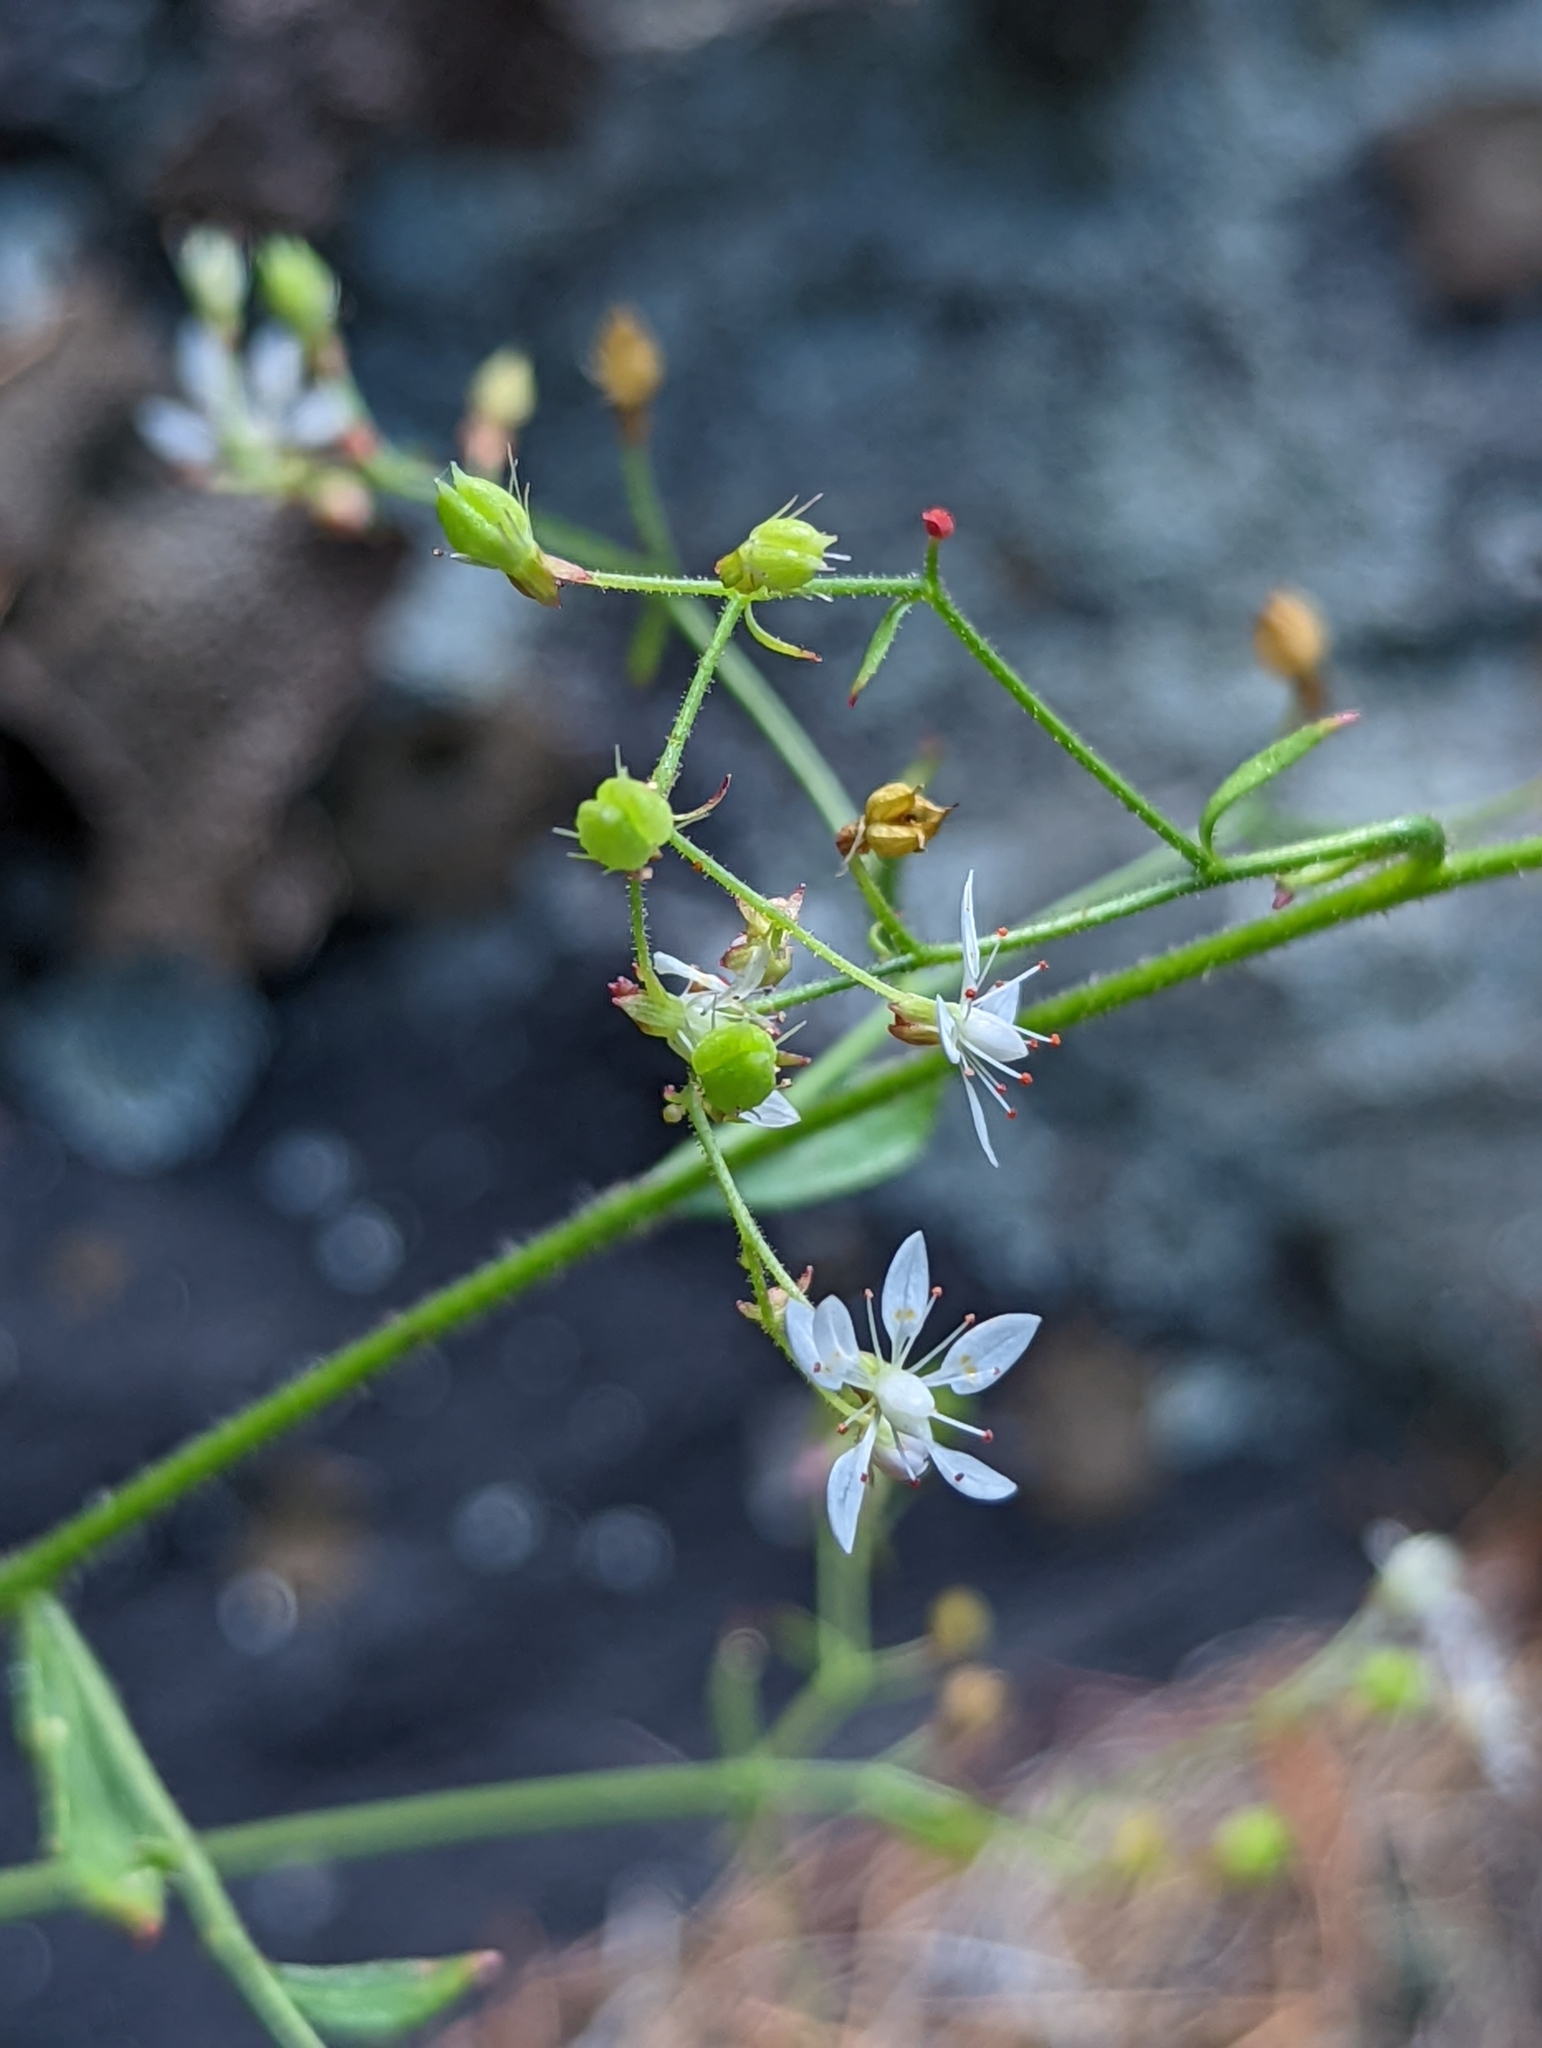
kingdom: Plantae
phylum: Tracheophyta
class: Magnoliopsida
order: Saxifragales
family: Saxifragaceae
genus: Micranthes
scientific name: Micranthes petiolaris
